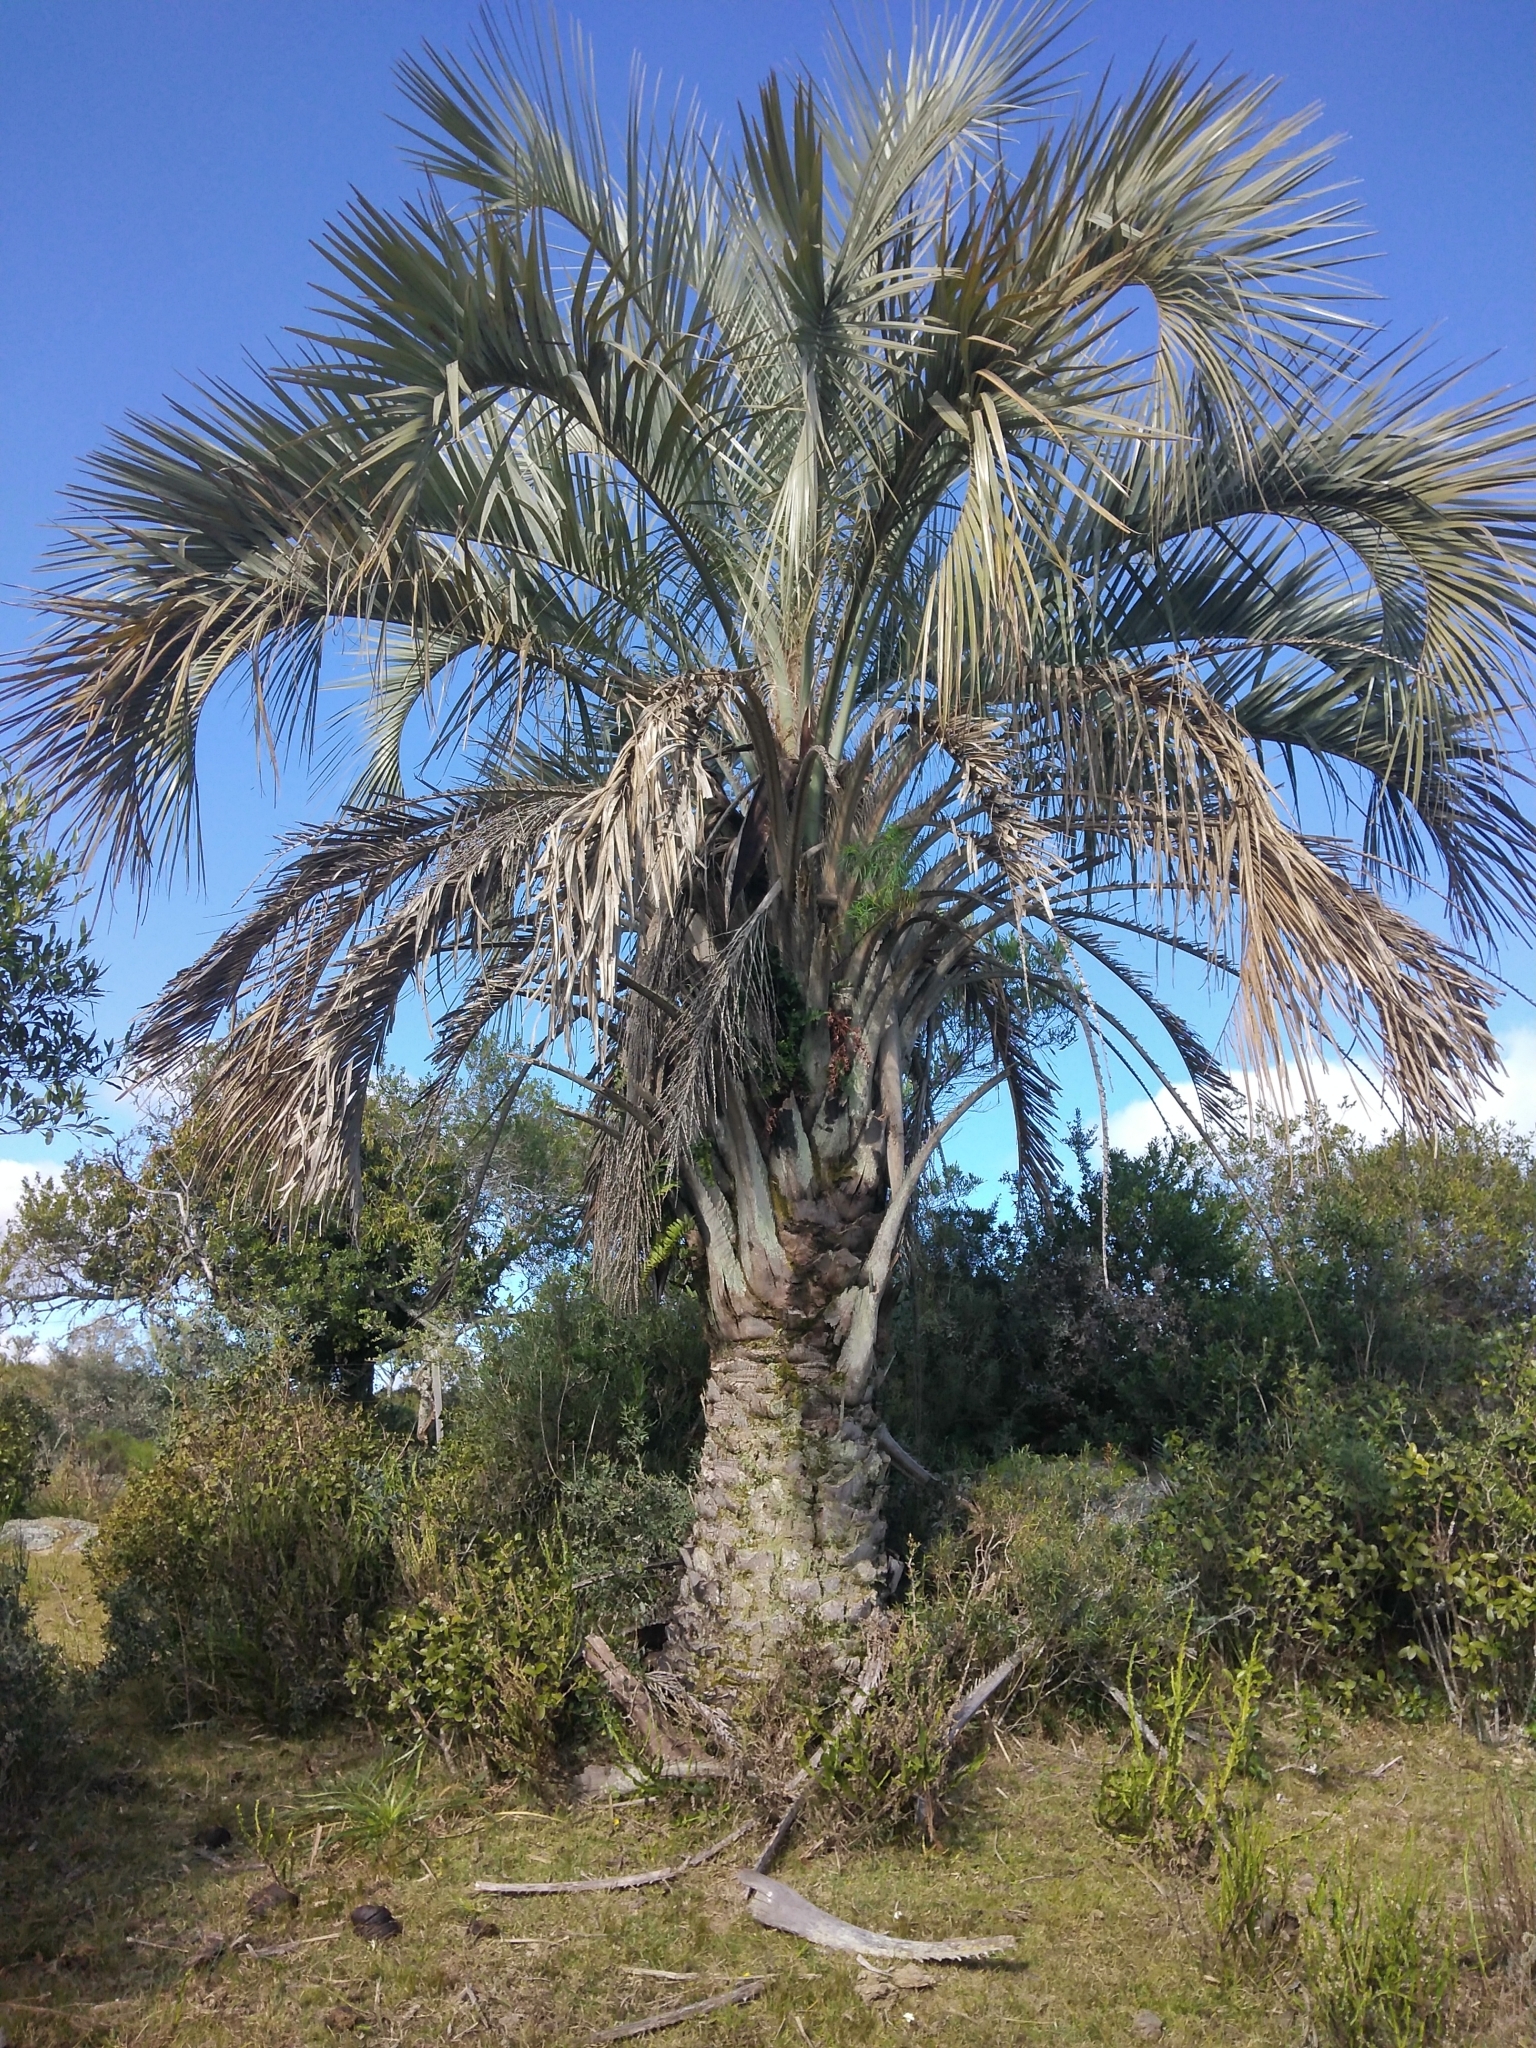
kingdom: Plantae
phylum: Tracheophyta
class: Liliopsida
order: Arecales
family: Arecaceae
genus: Butia
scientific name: Butia odorata
